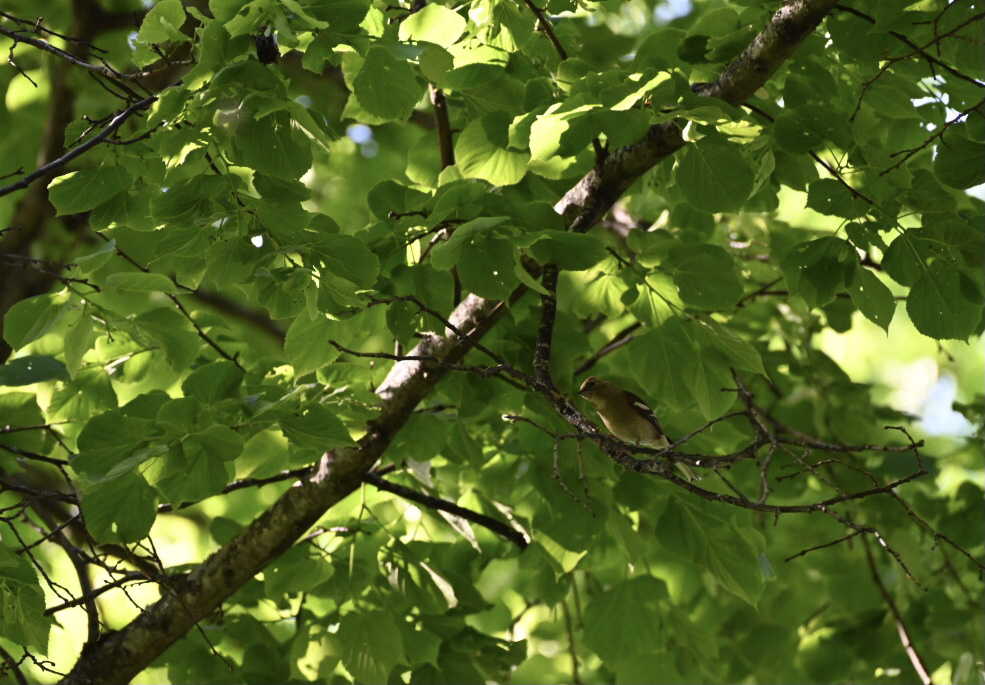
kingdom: Animalia
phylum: Chordata
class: Aves
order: Passeriformes
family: Fringillidae
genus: Fringilla
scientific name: Fringilla coelebs
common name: Common chaffinch
